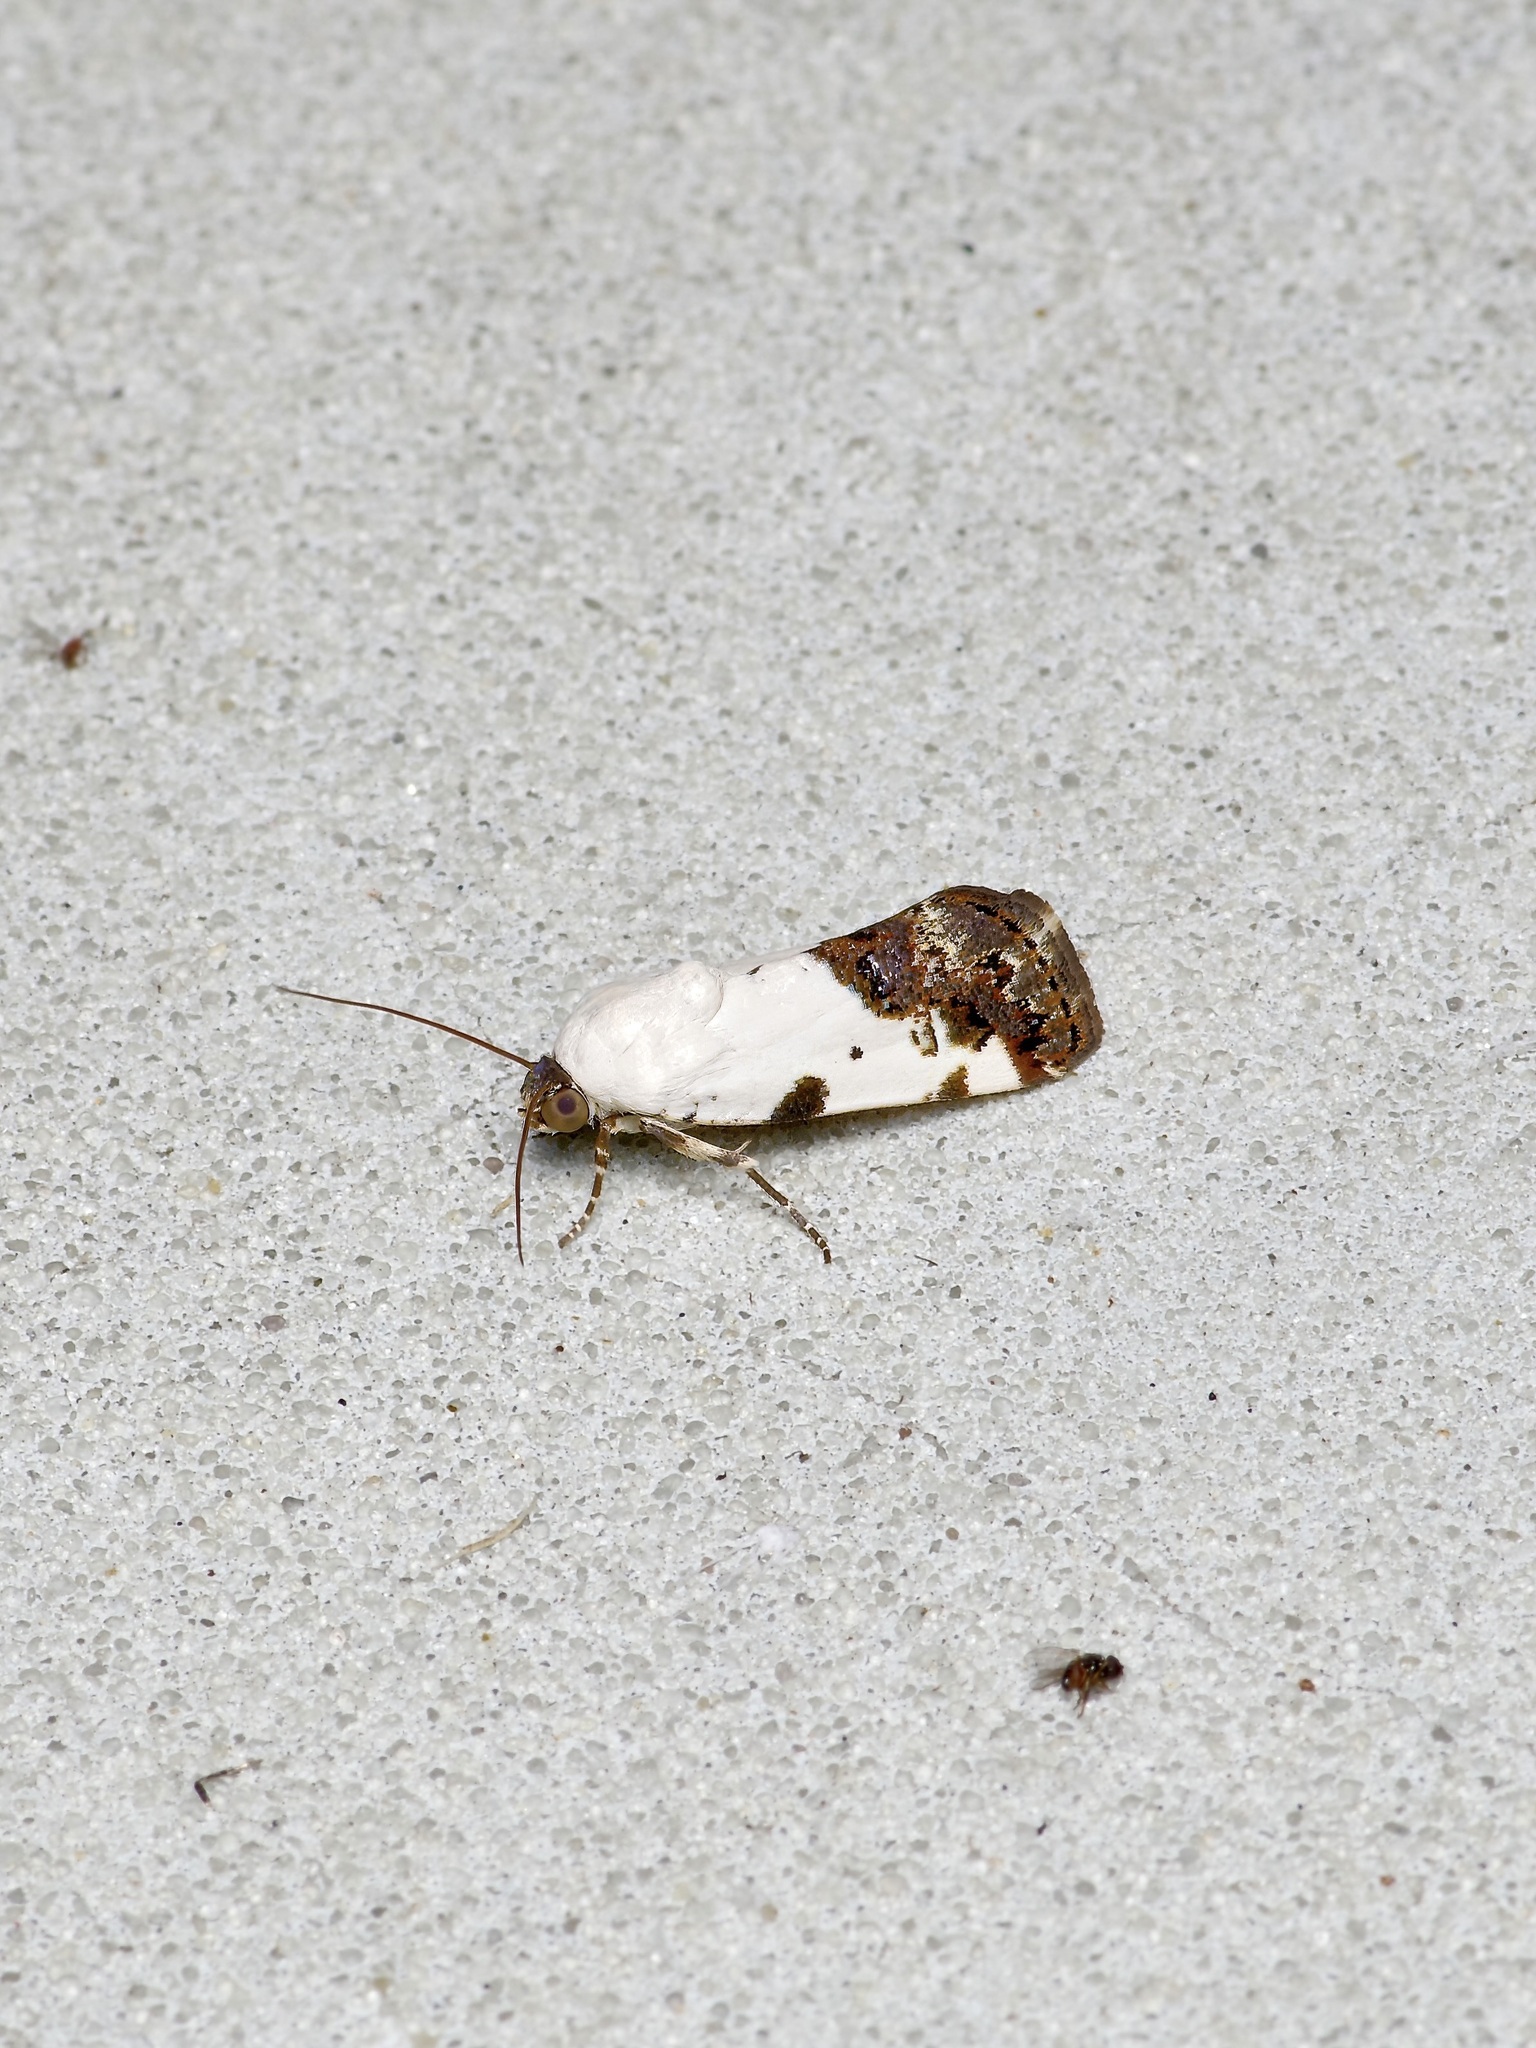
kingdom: Animalia
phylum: Arthropoda
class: Insecta
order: Lepidoptera
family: Noctuidae
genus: Acontia
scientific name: Acontia aprica
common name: Nun
